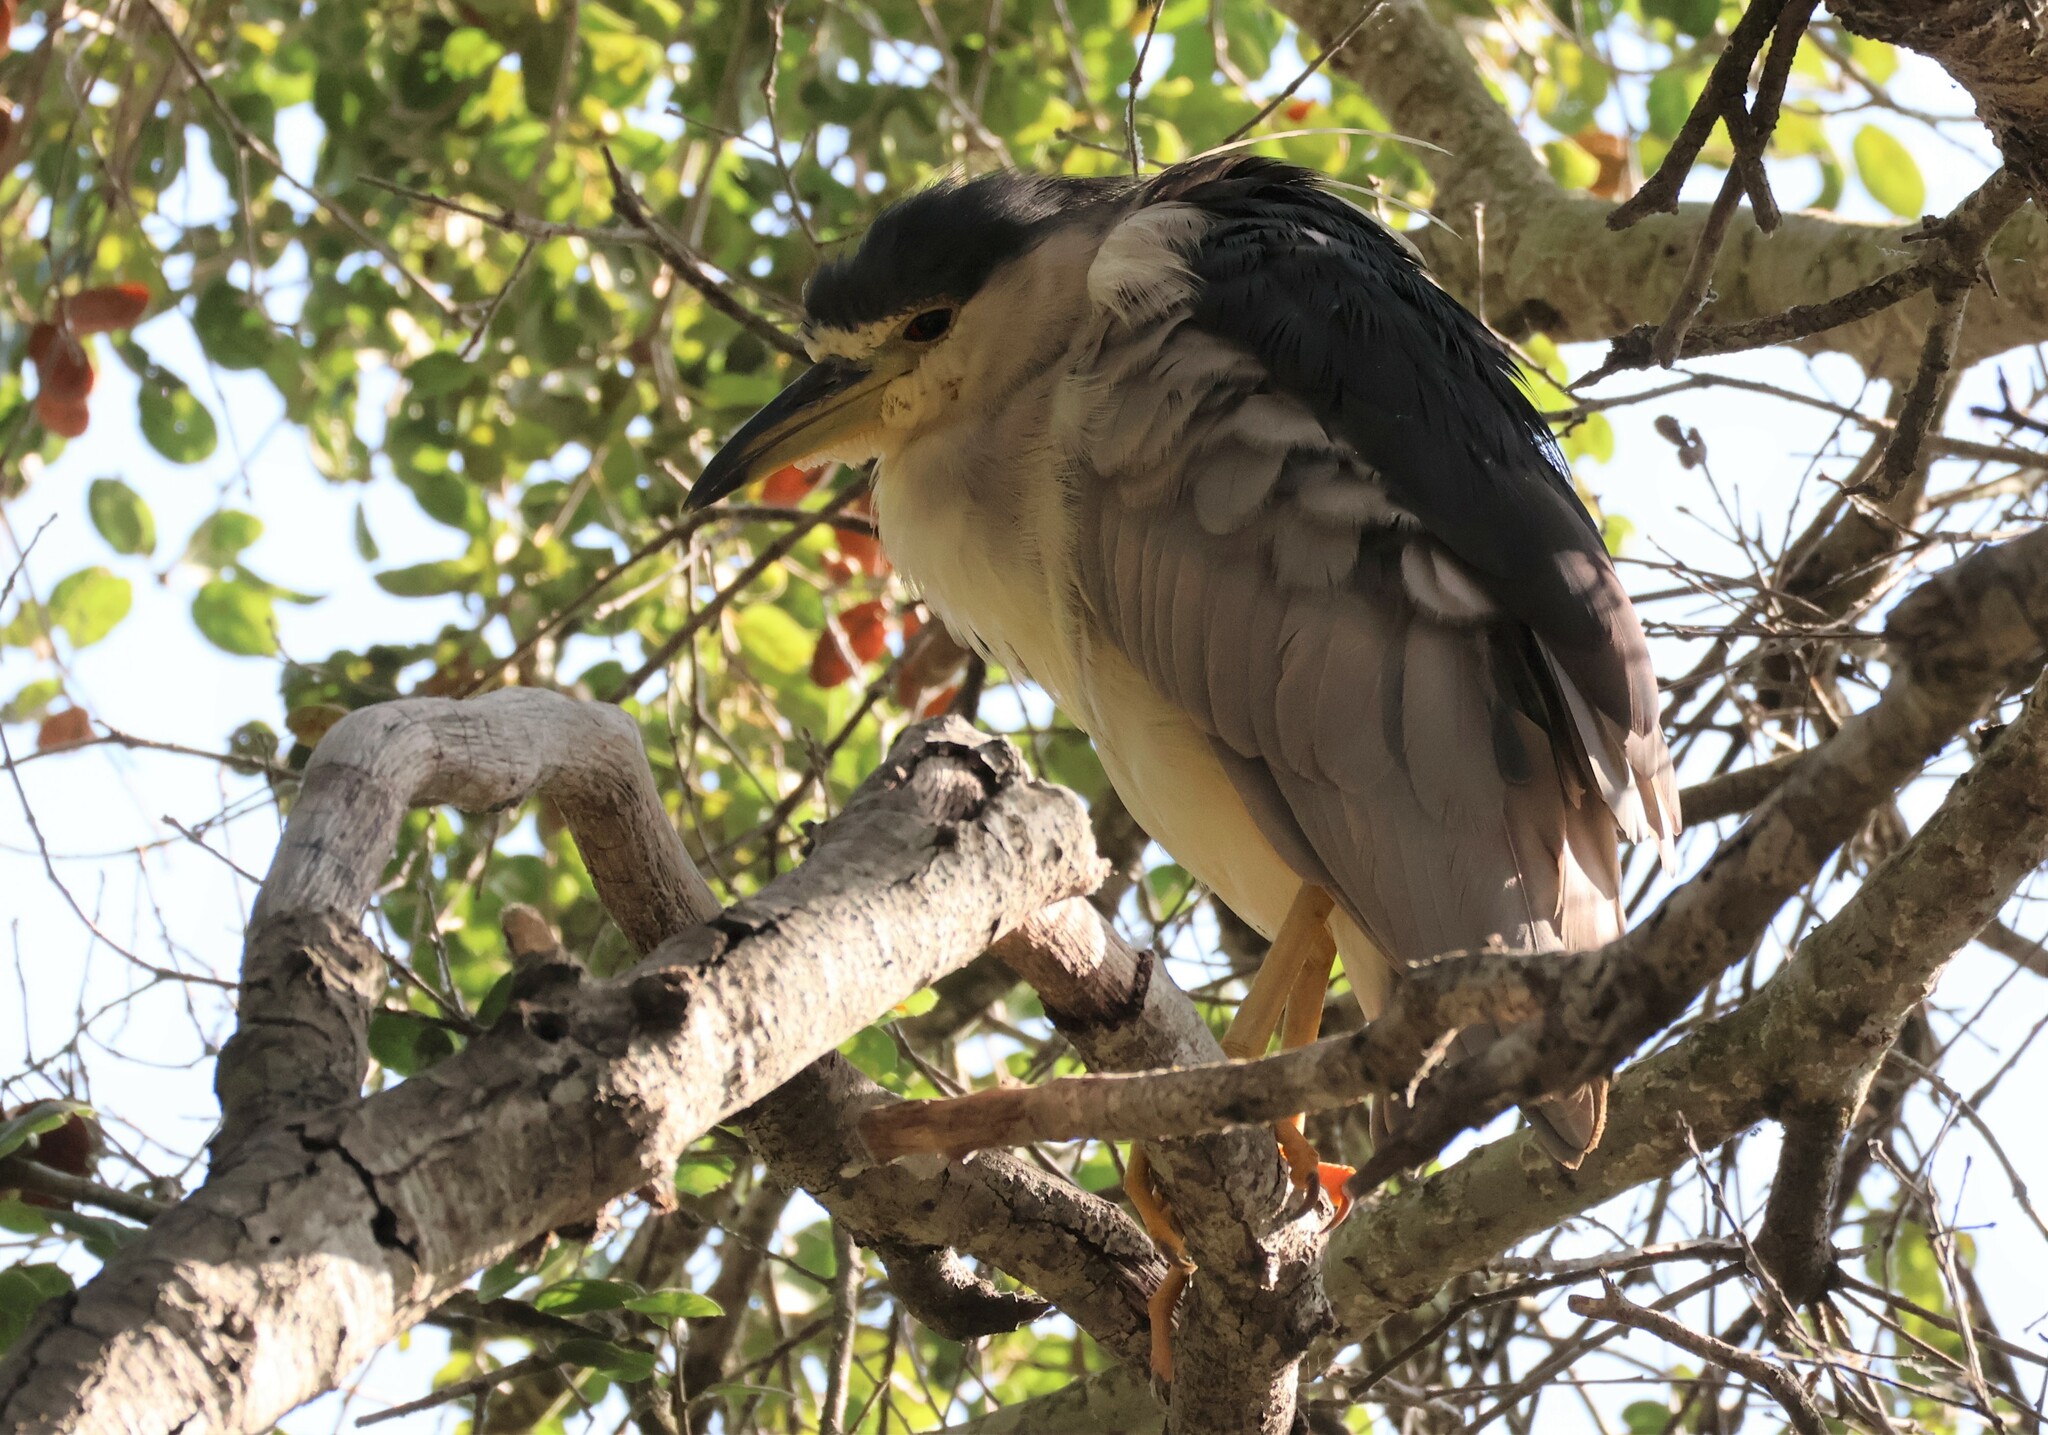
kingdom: Animalia
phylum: Chordata
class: Aves
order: Pelecaniformes
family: Ardeidae
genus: Nycticorax
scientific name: Nycticorax nycticorax
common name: Black-crowned night heron
